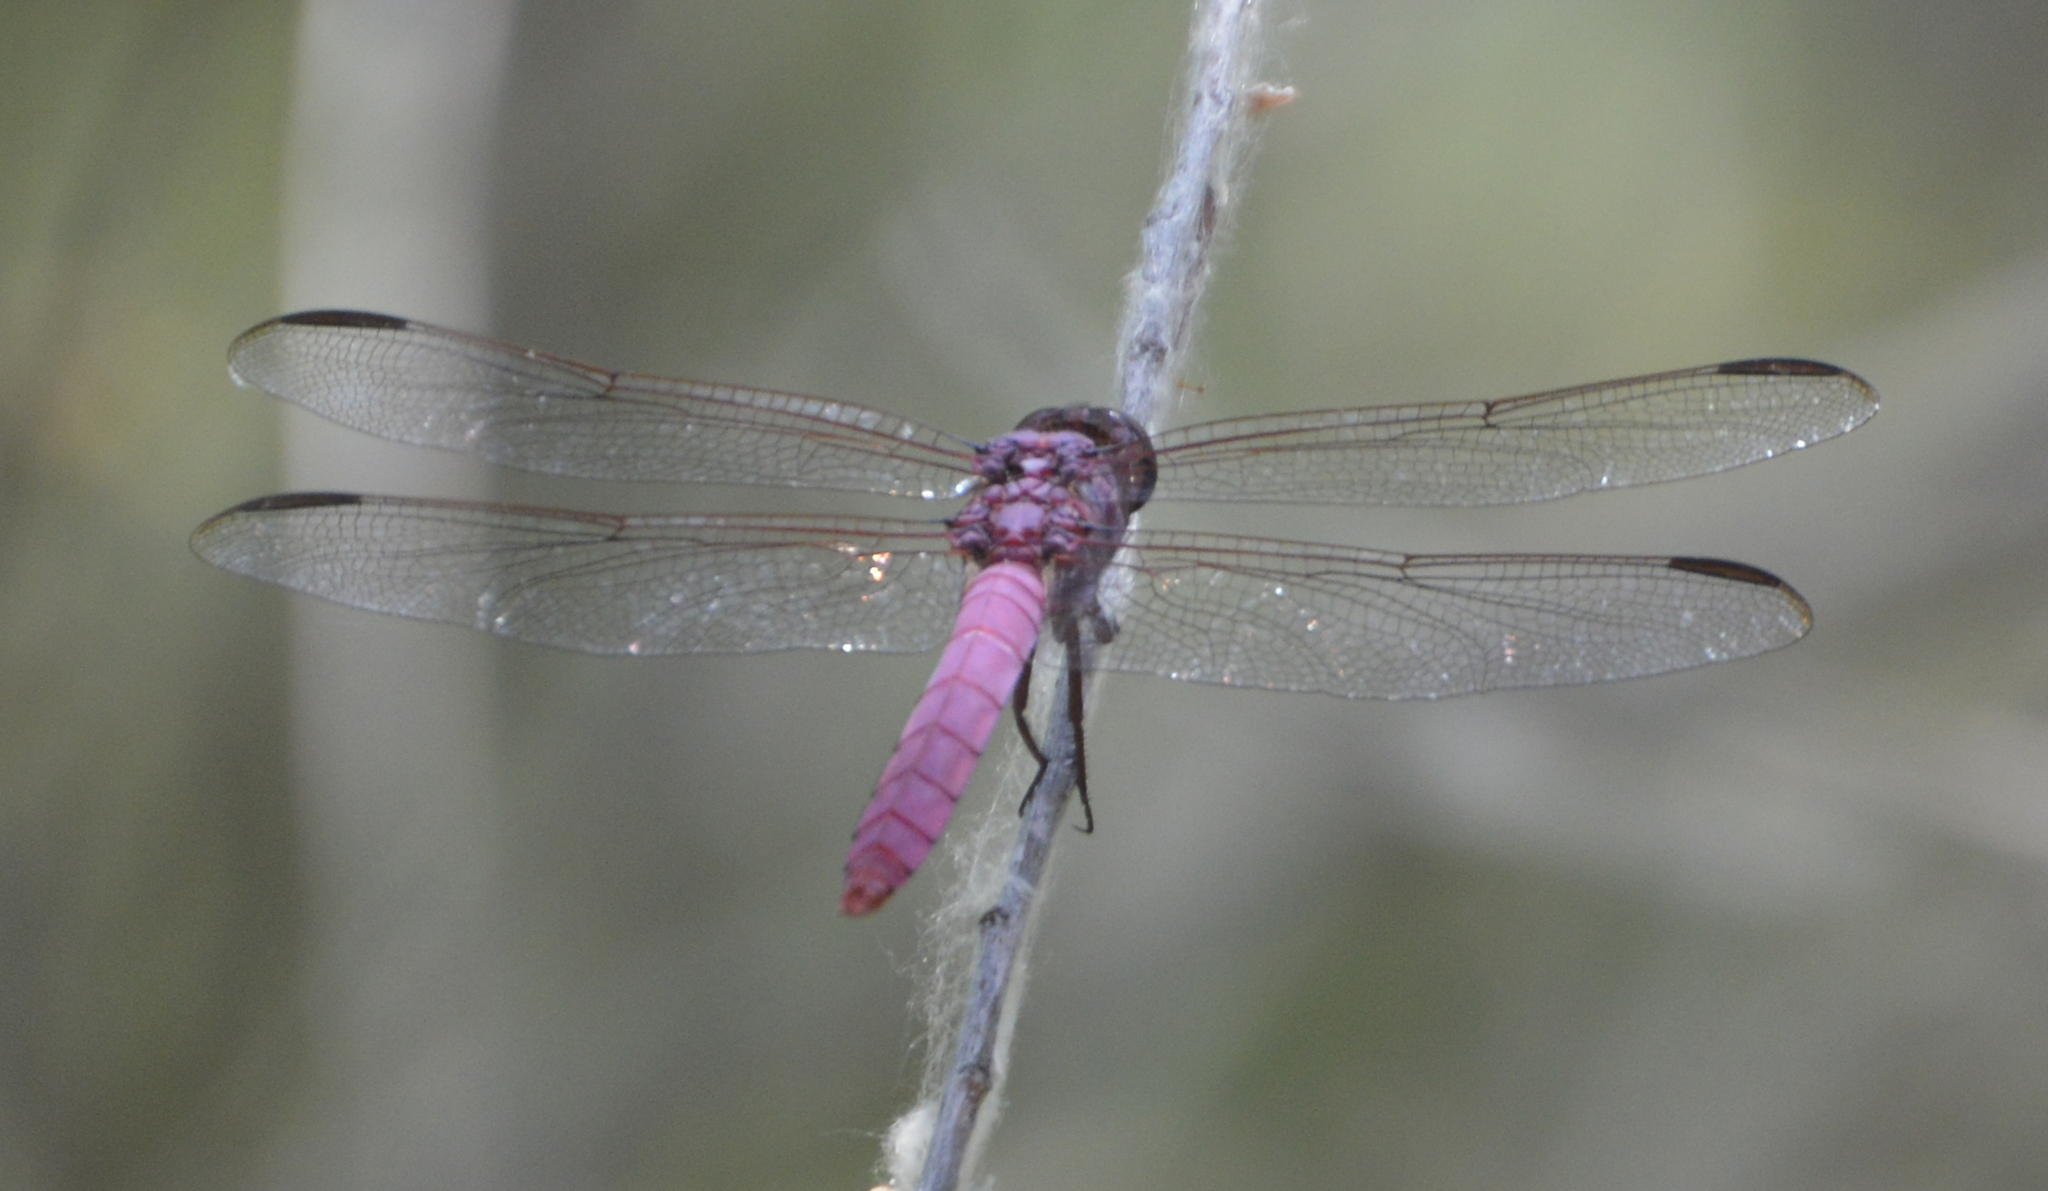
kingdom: Animalia
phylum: Arthropoda
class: Insecta
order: Odonata
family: Libellulidae
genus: Orthemis
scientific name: Orthemis ferruginea
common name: Roseate skimmer
